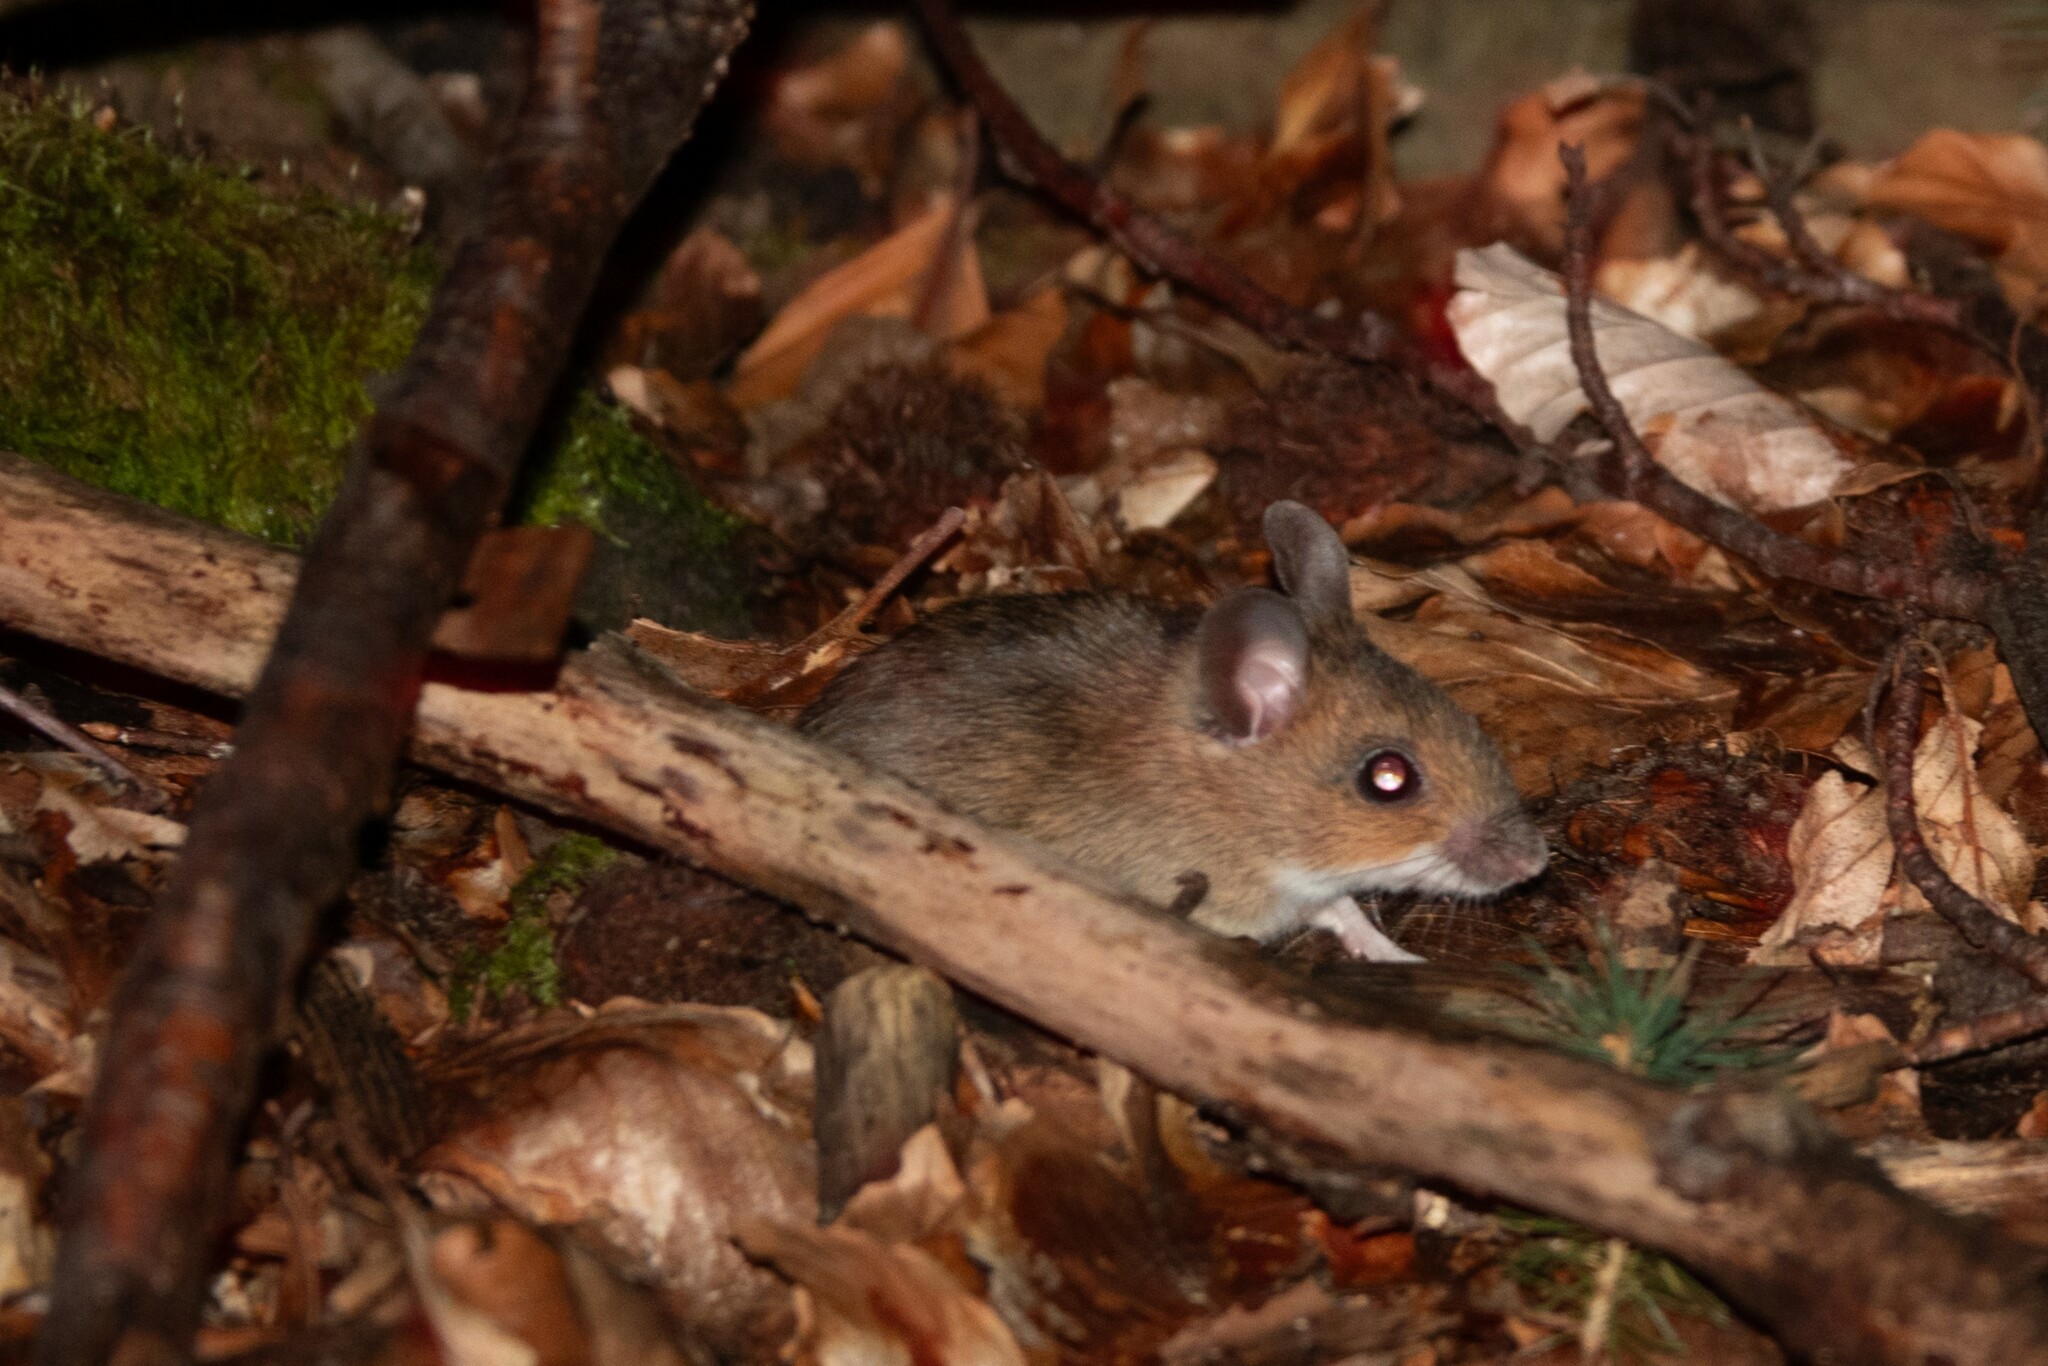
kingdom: Animalia
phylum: Chordata
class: Mammalia
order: Rodentia
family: Muridae
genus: Apodemus
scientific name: Apodemus agrarius
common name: Striped field mouse
